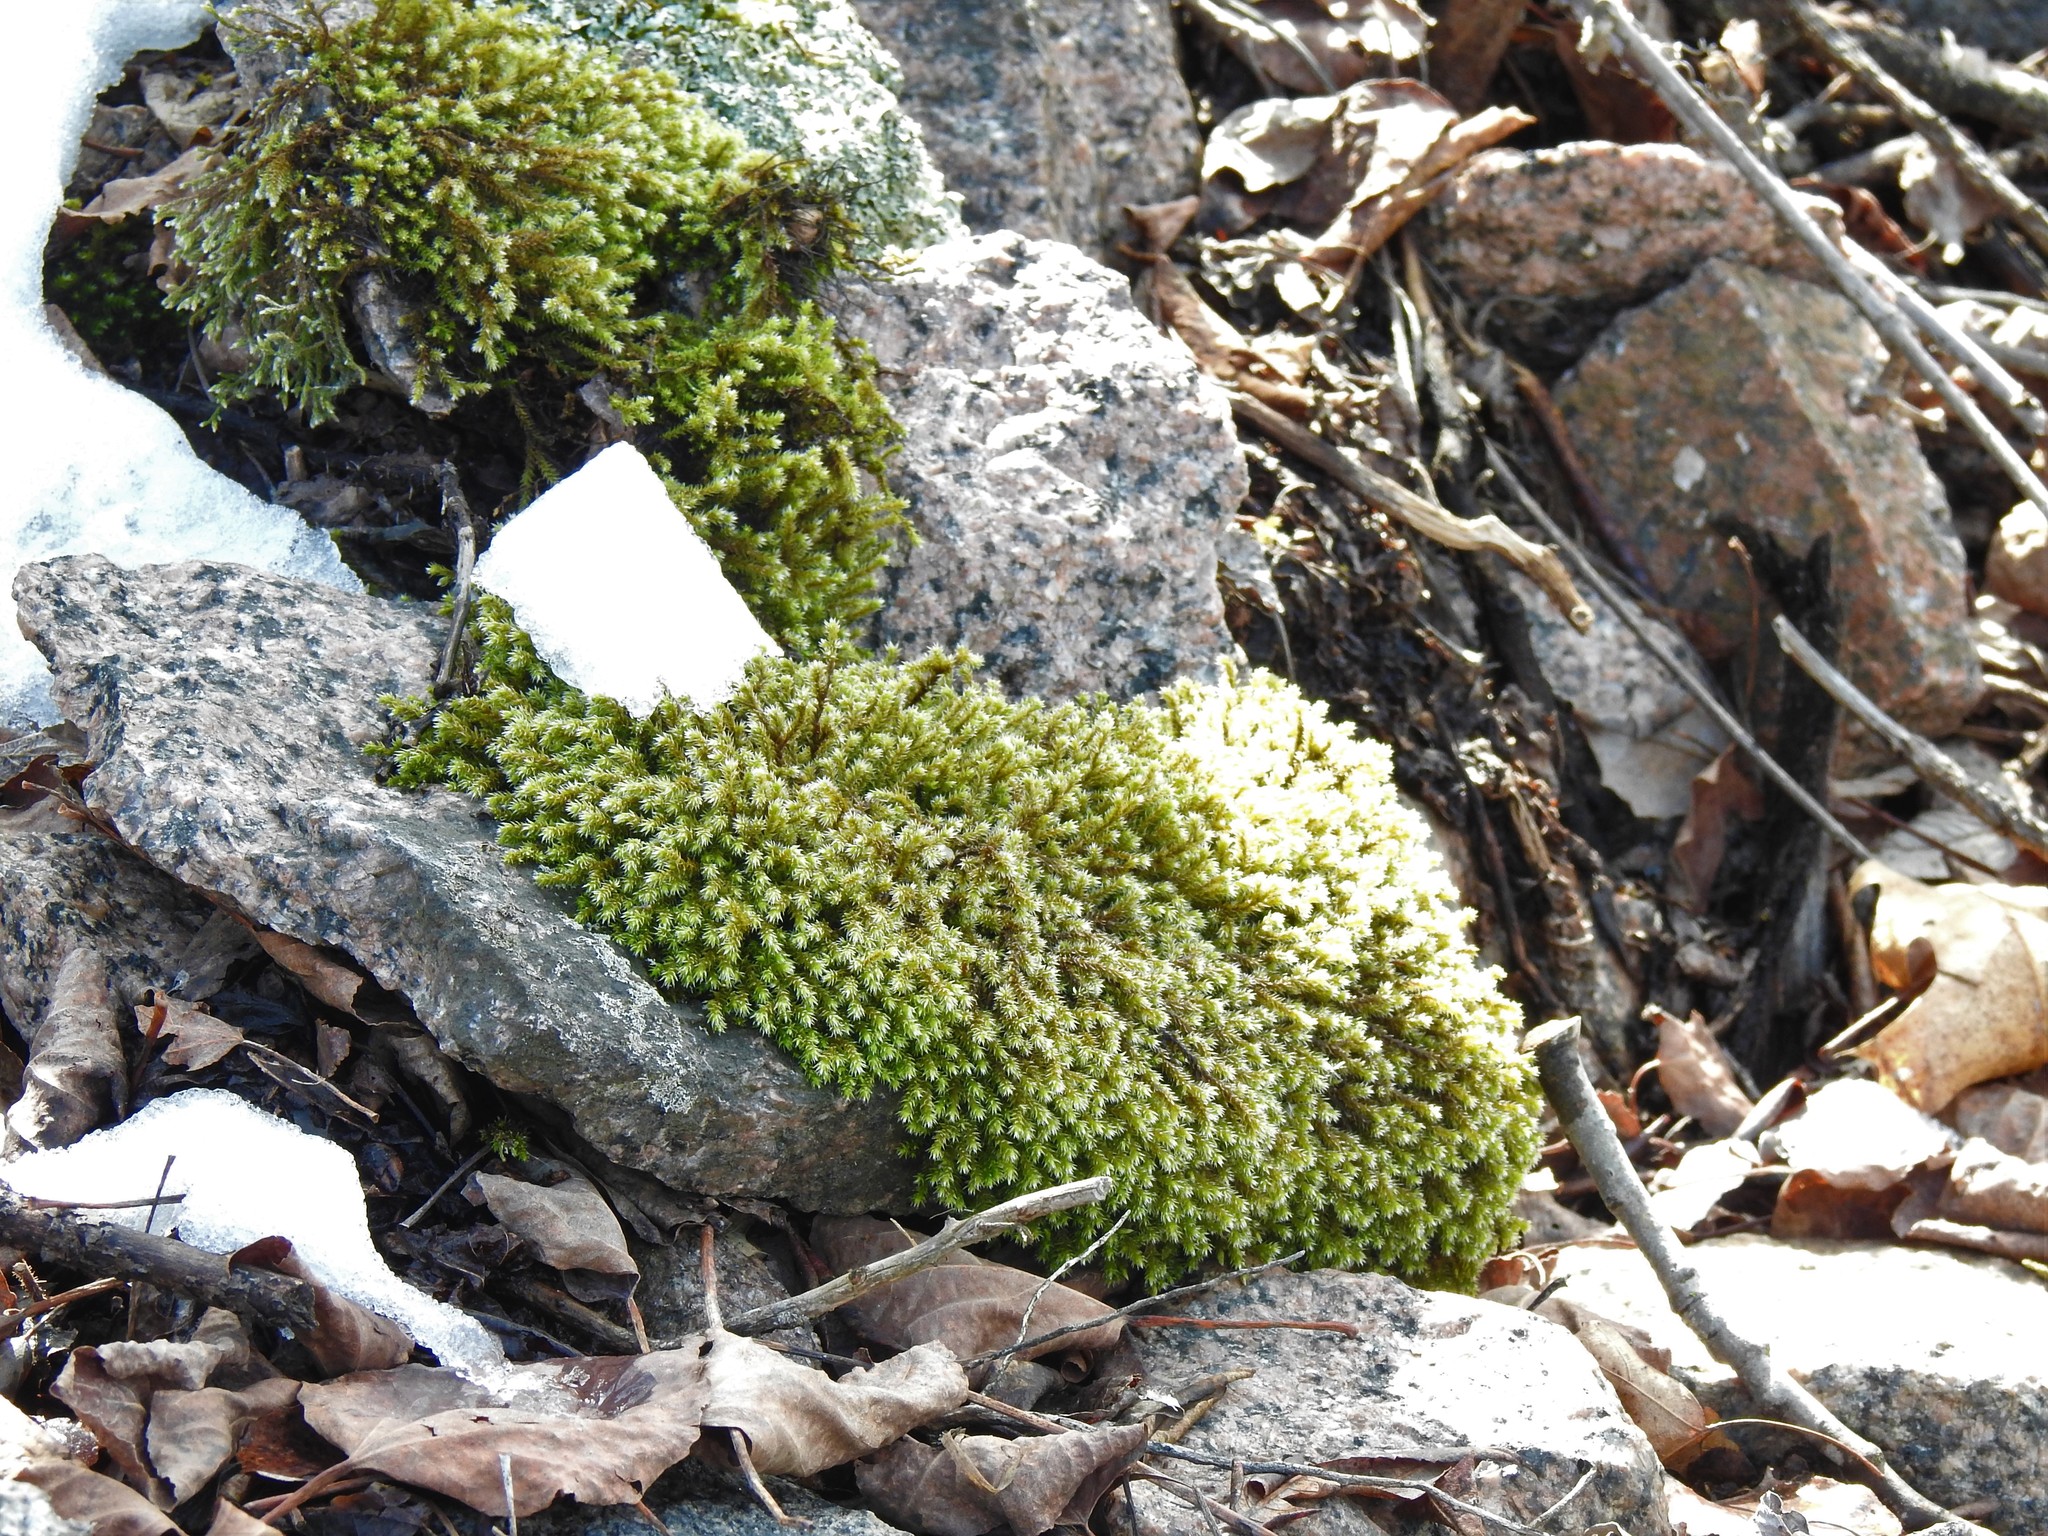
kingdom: Plantae
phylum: Bryophyta
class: Bryopsida
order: Hedwigiales
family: Hedwigiaceae
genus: Hedwigia
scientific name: Hedwigia ciliata
